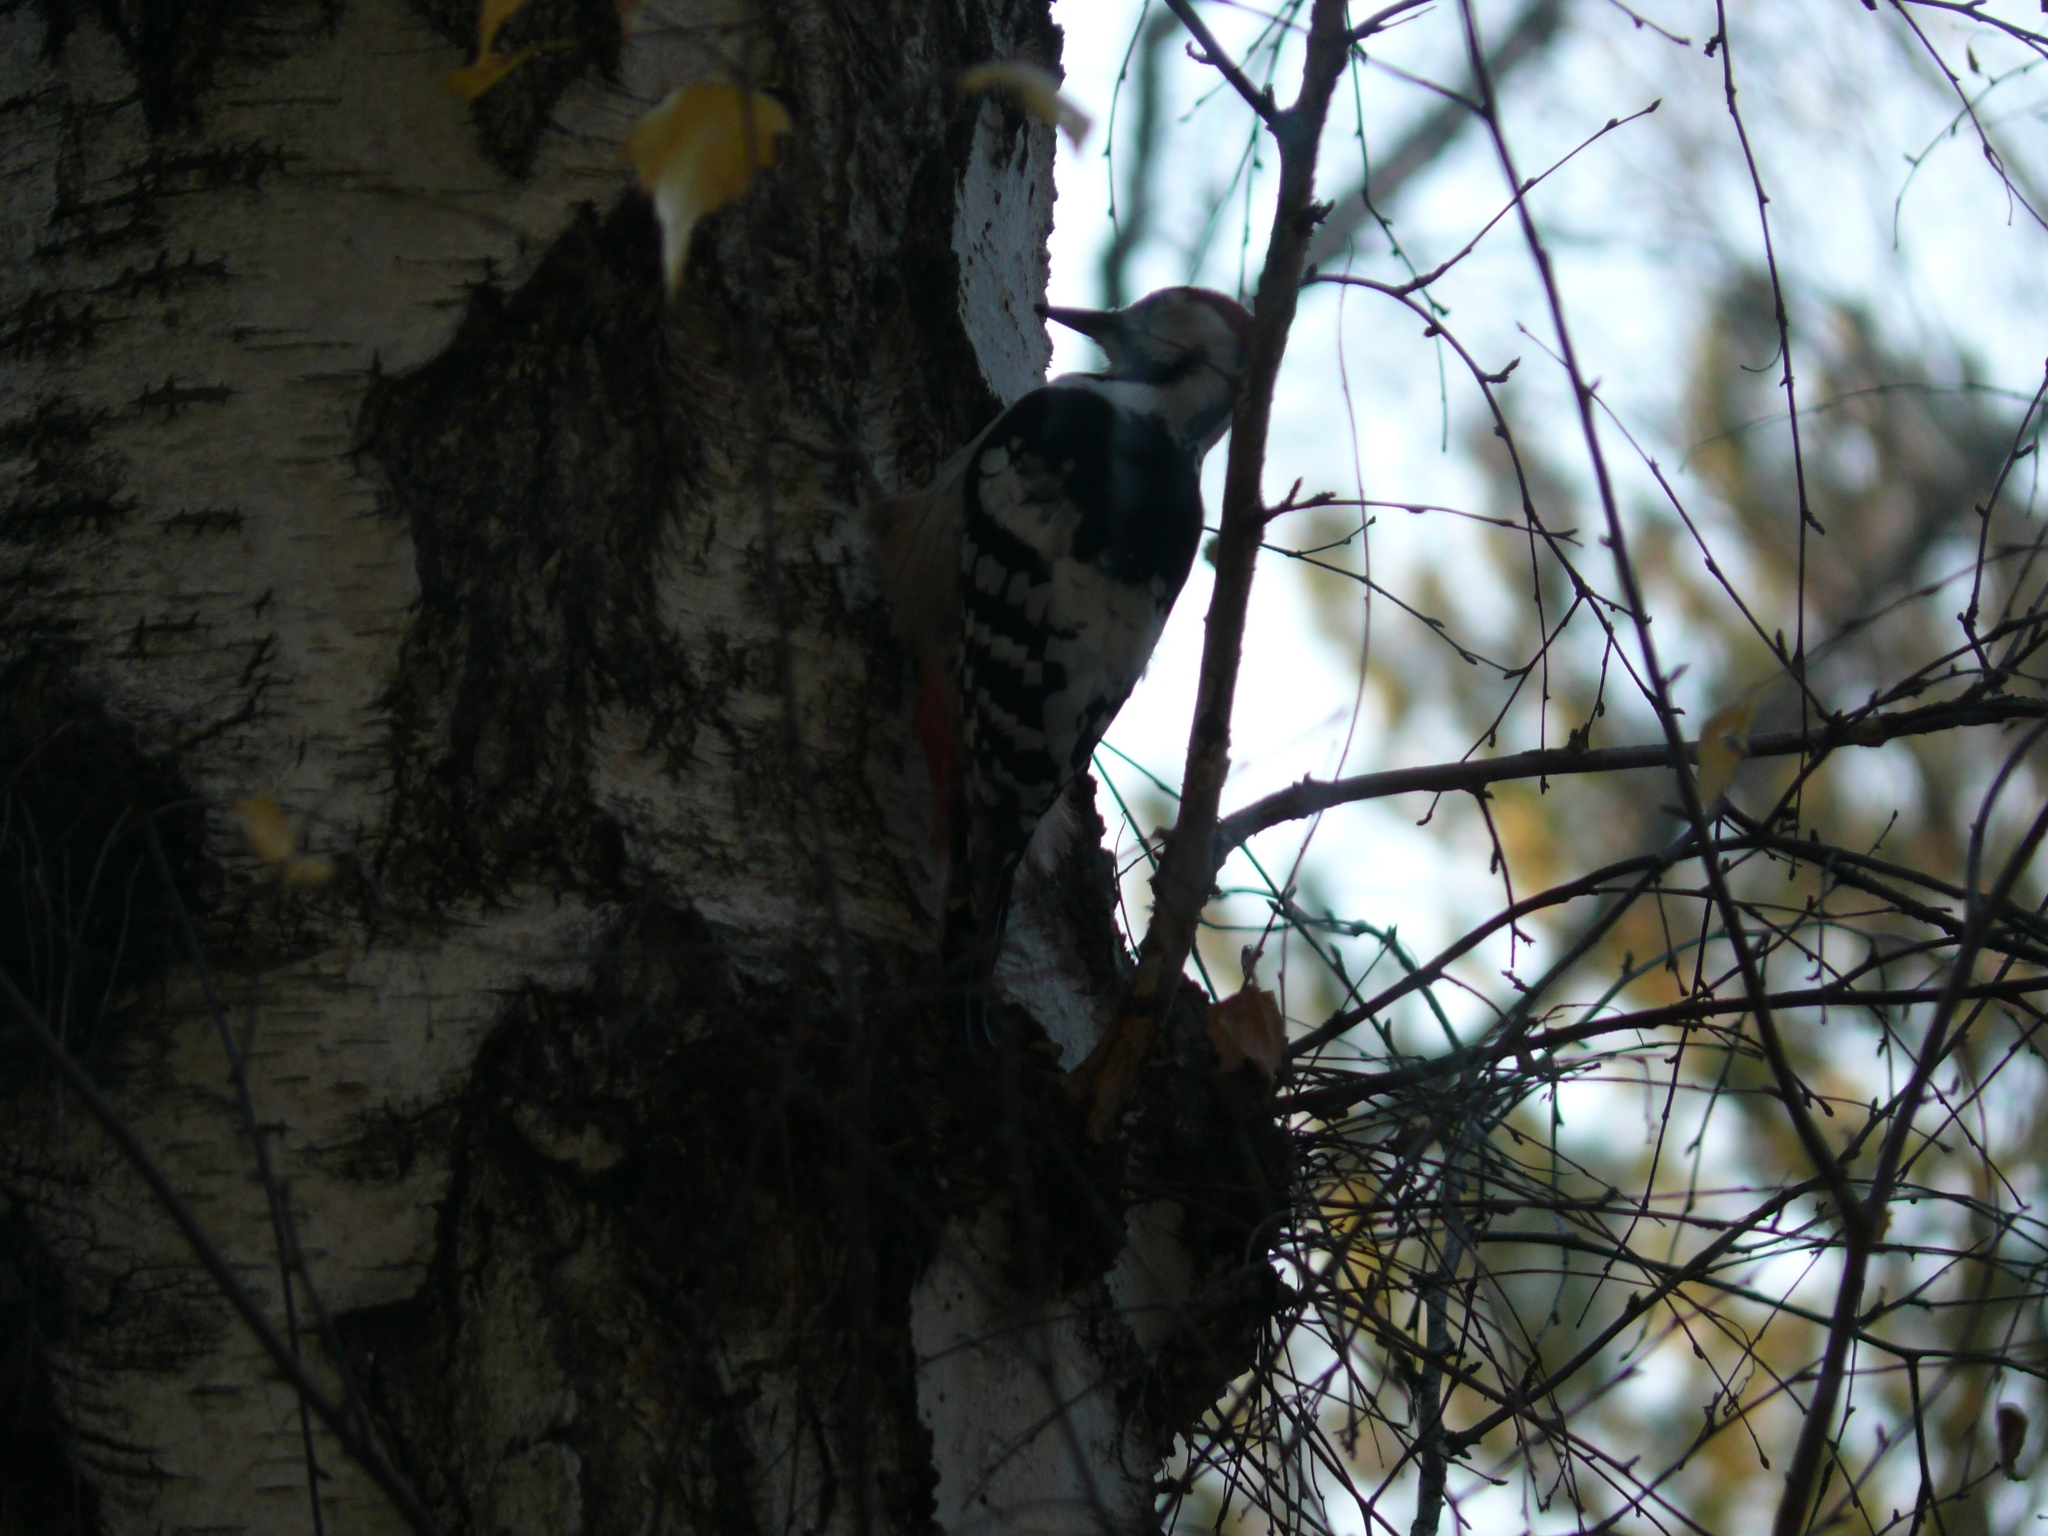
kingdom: Animalia
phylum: Chordata
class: Aves
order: Piciformes
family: Picidae
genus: Dendrocopos
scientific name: Dendrocopos leucotos
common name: White-backed woodpecker
